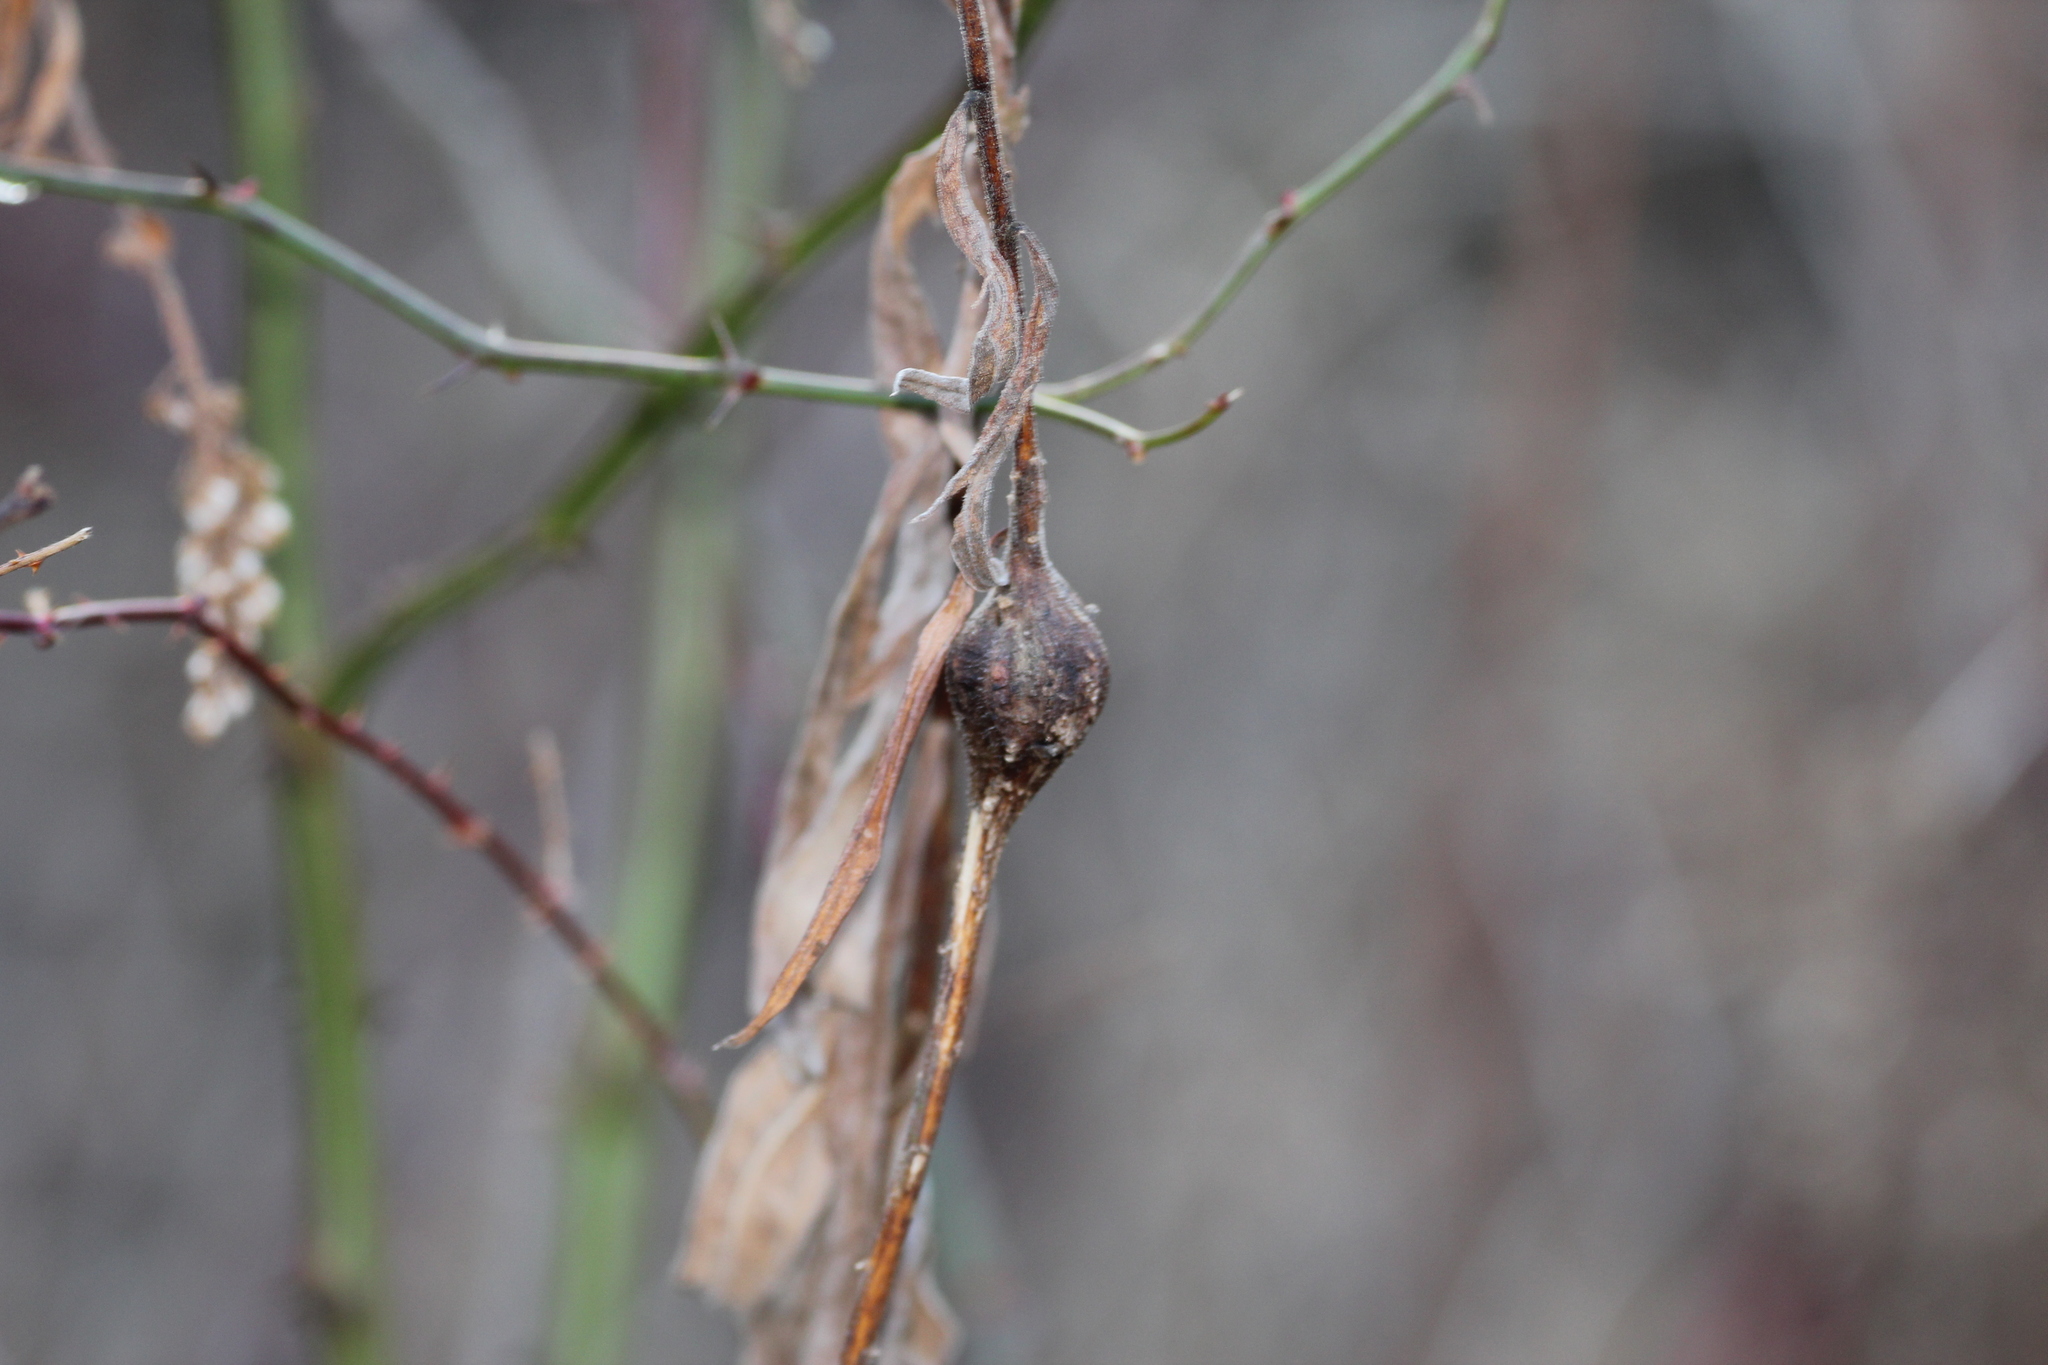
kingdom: Animalia
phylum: Arthropoda
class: Insecta
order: Diptera
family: Tephritidae
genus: Eurosta
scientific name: Eurosta solidaginis
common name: Goldenrod gall fly
